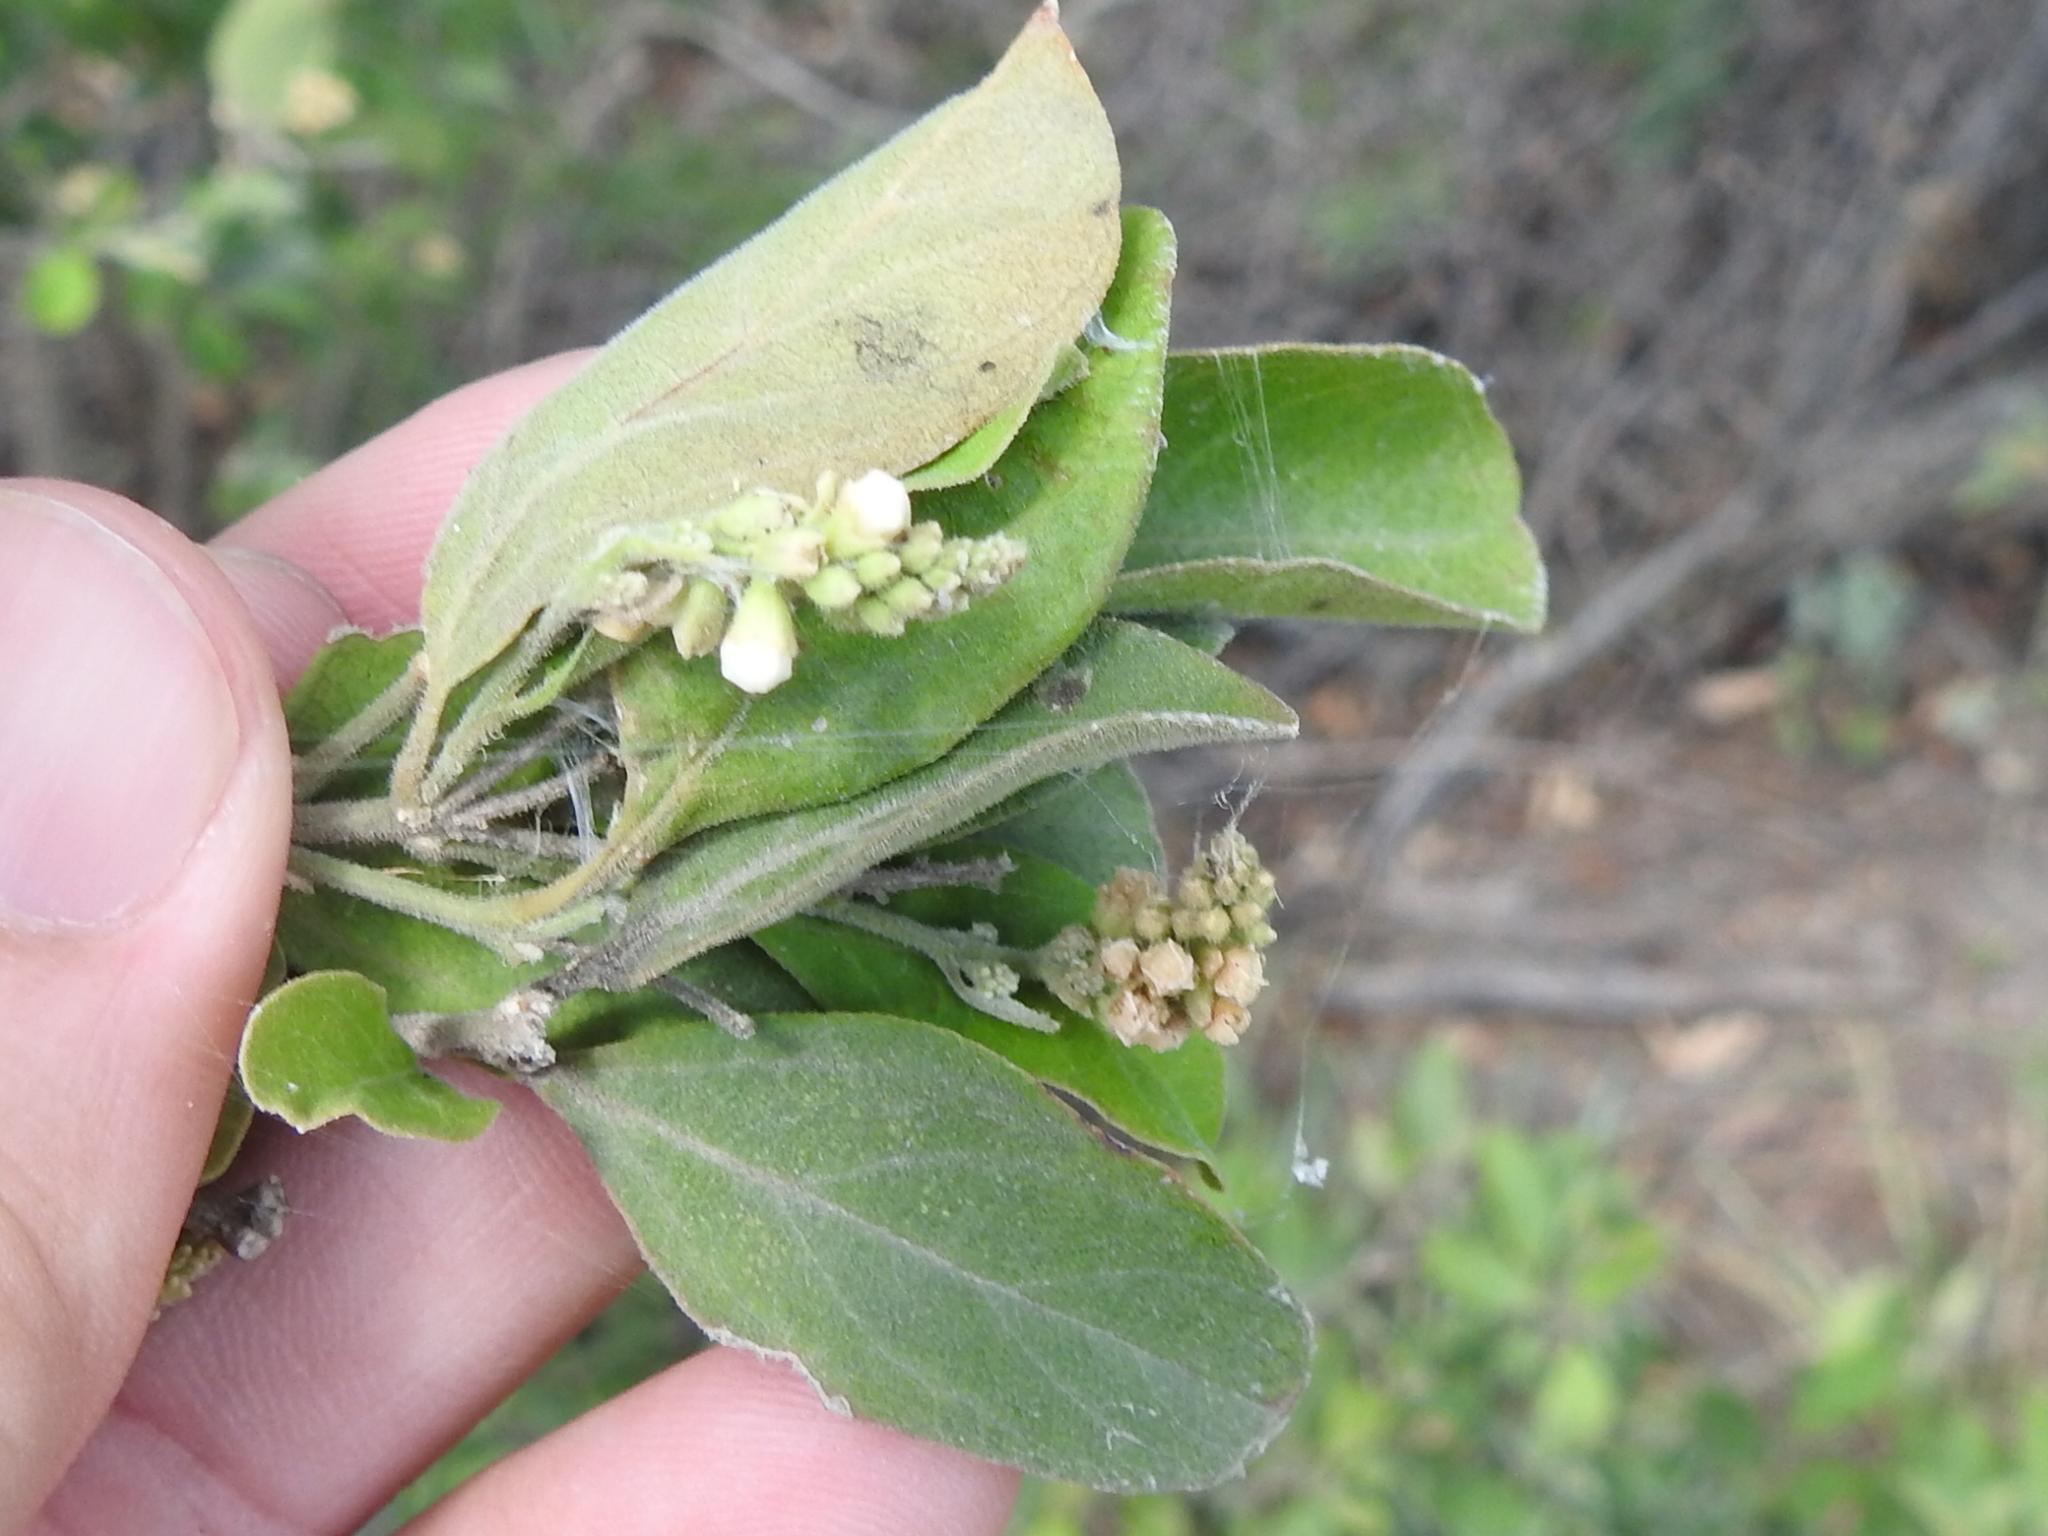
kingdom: Plantae
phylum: Tracheophyta
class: Magnoliopsida
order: Lamiales
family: Verbenaceae
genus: Citharexylum
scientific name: Citharexylum berlandieri
